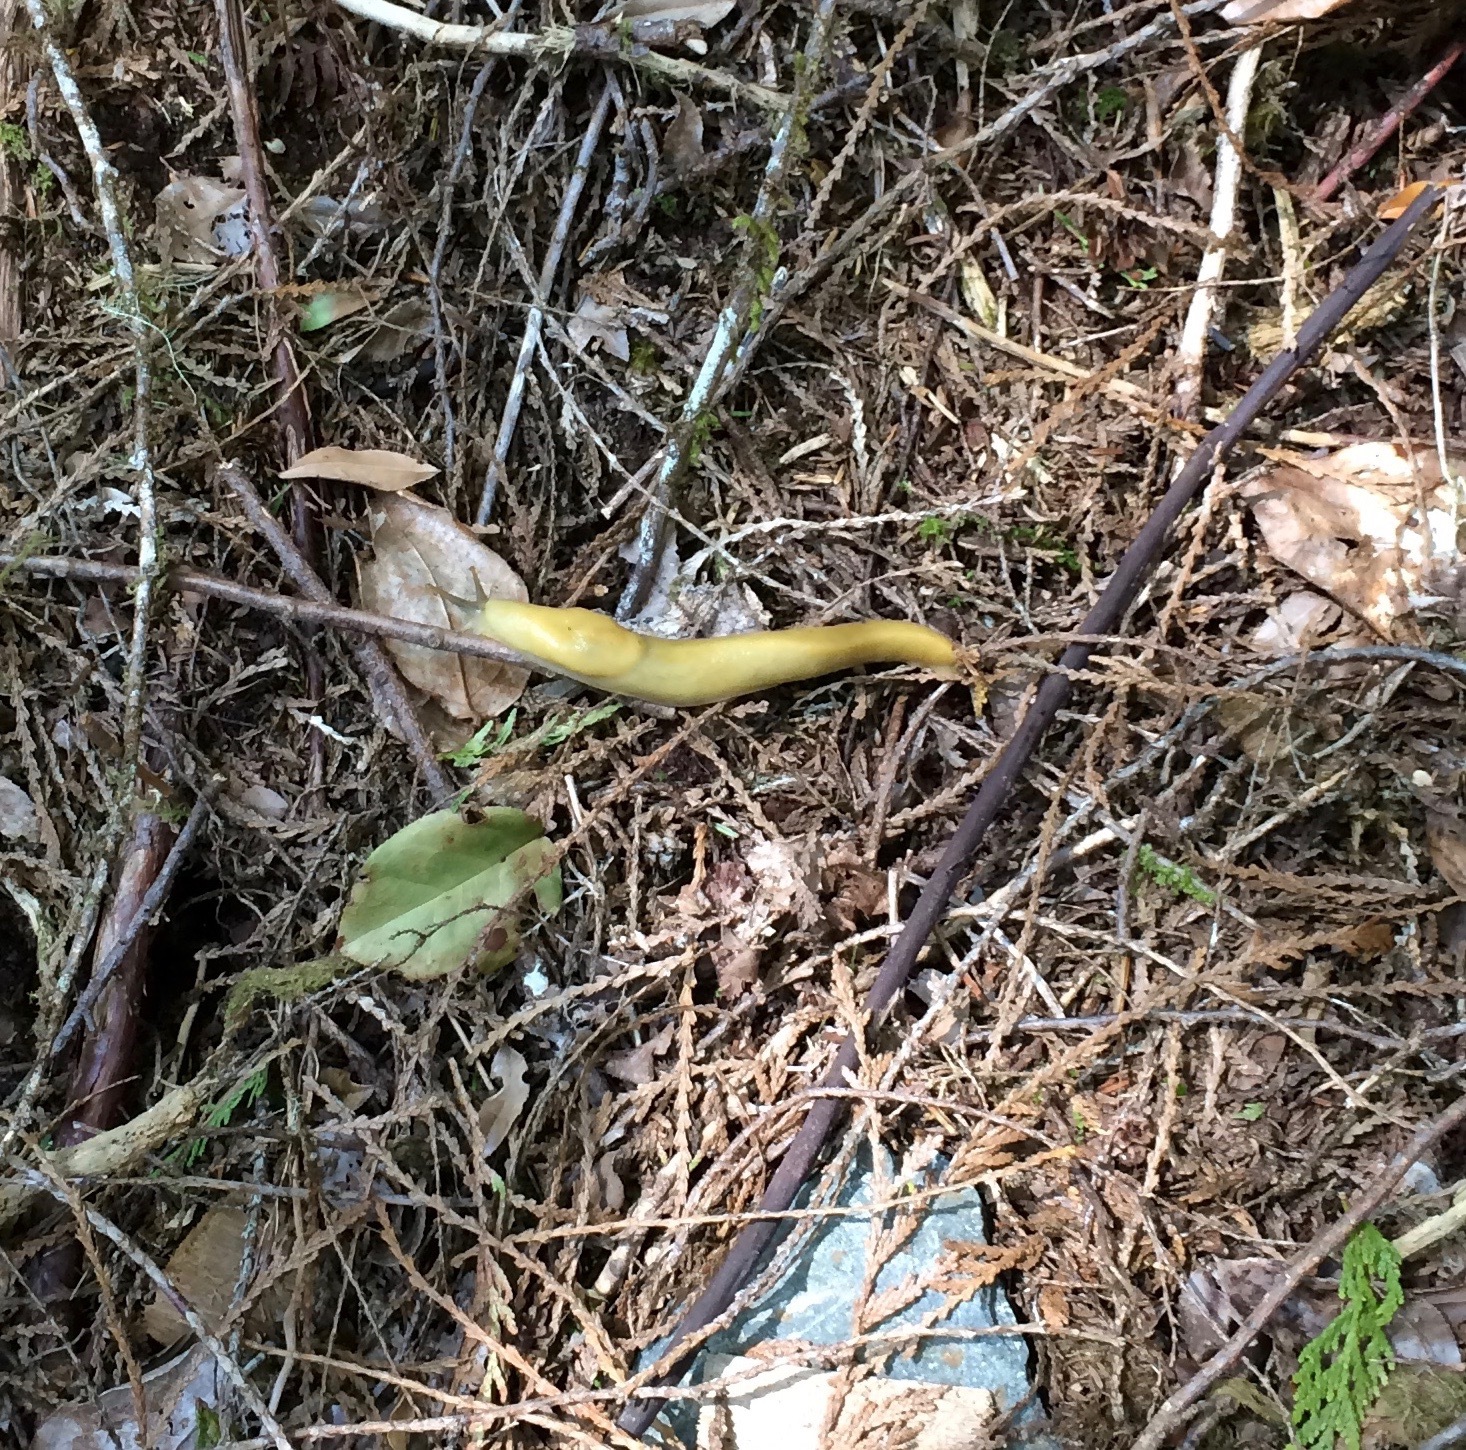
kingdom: Animalia
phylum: Mollusca
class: Gastropoda
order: Stylommatophora
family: Ariolimacidae
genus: Ariolimax
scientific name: Ariolimax columbianus
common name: Pacific banana slug
